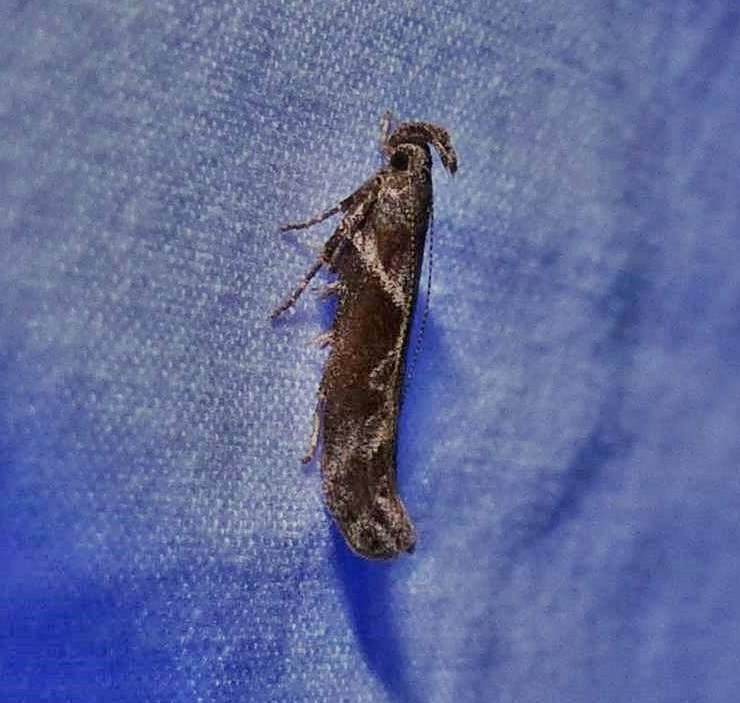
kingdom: Animalia
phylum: Arthropoda
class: Insecta
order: Lepidoptera
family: Gelechiidae
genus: Gnorimoschema
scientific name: Gnorimoschema gallaesolidaginis
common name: Goldenrod elliptical-gall moth
